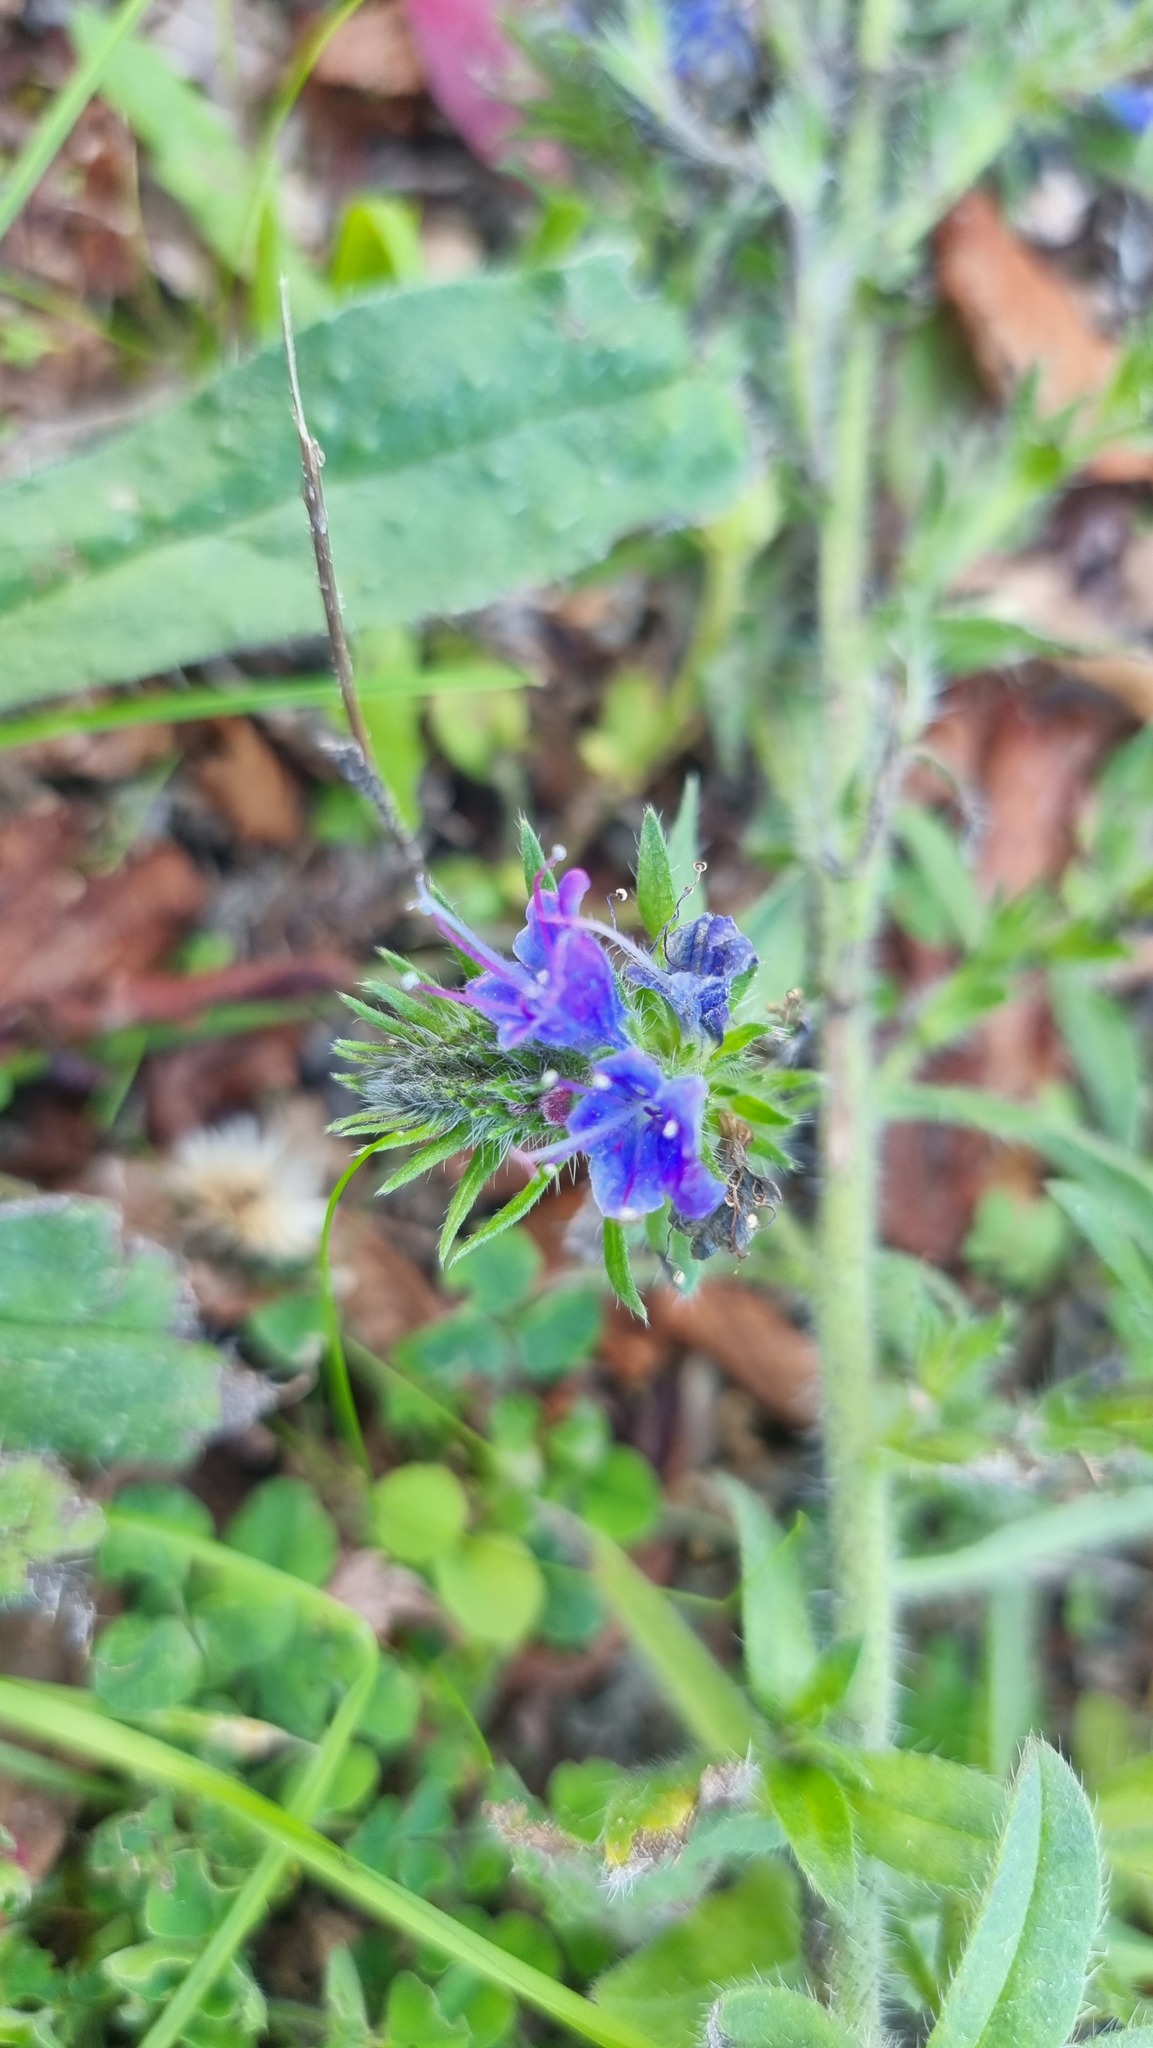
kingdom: Plantae
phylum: Tracheophyta
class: Magnoliopsida
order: Boraginales
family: Boraginaceae
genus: Echium
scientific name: Echium vulgare
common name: Common viper's bugloss
